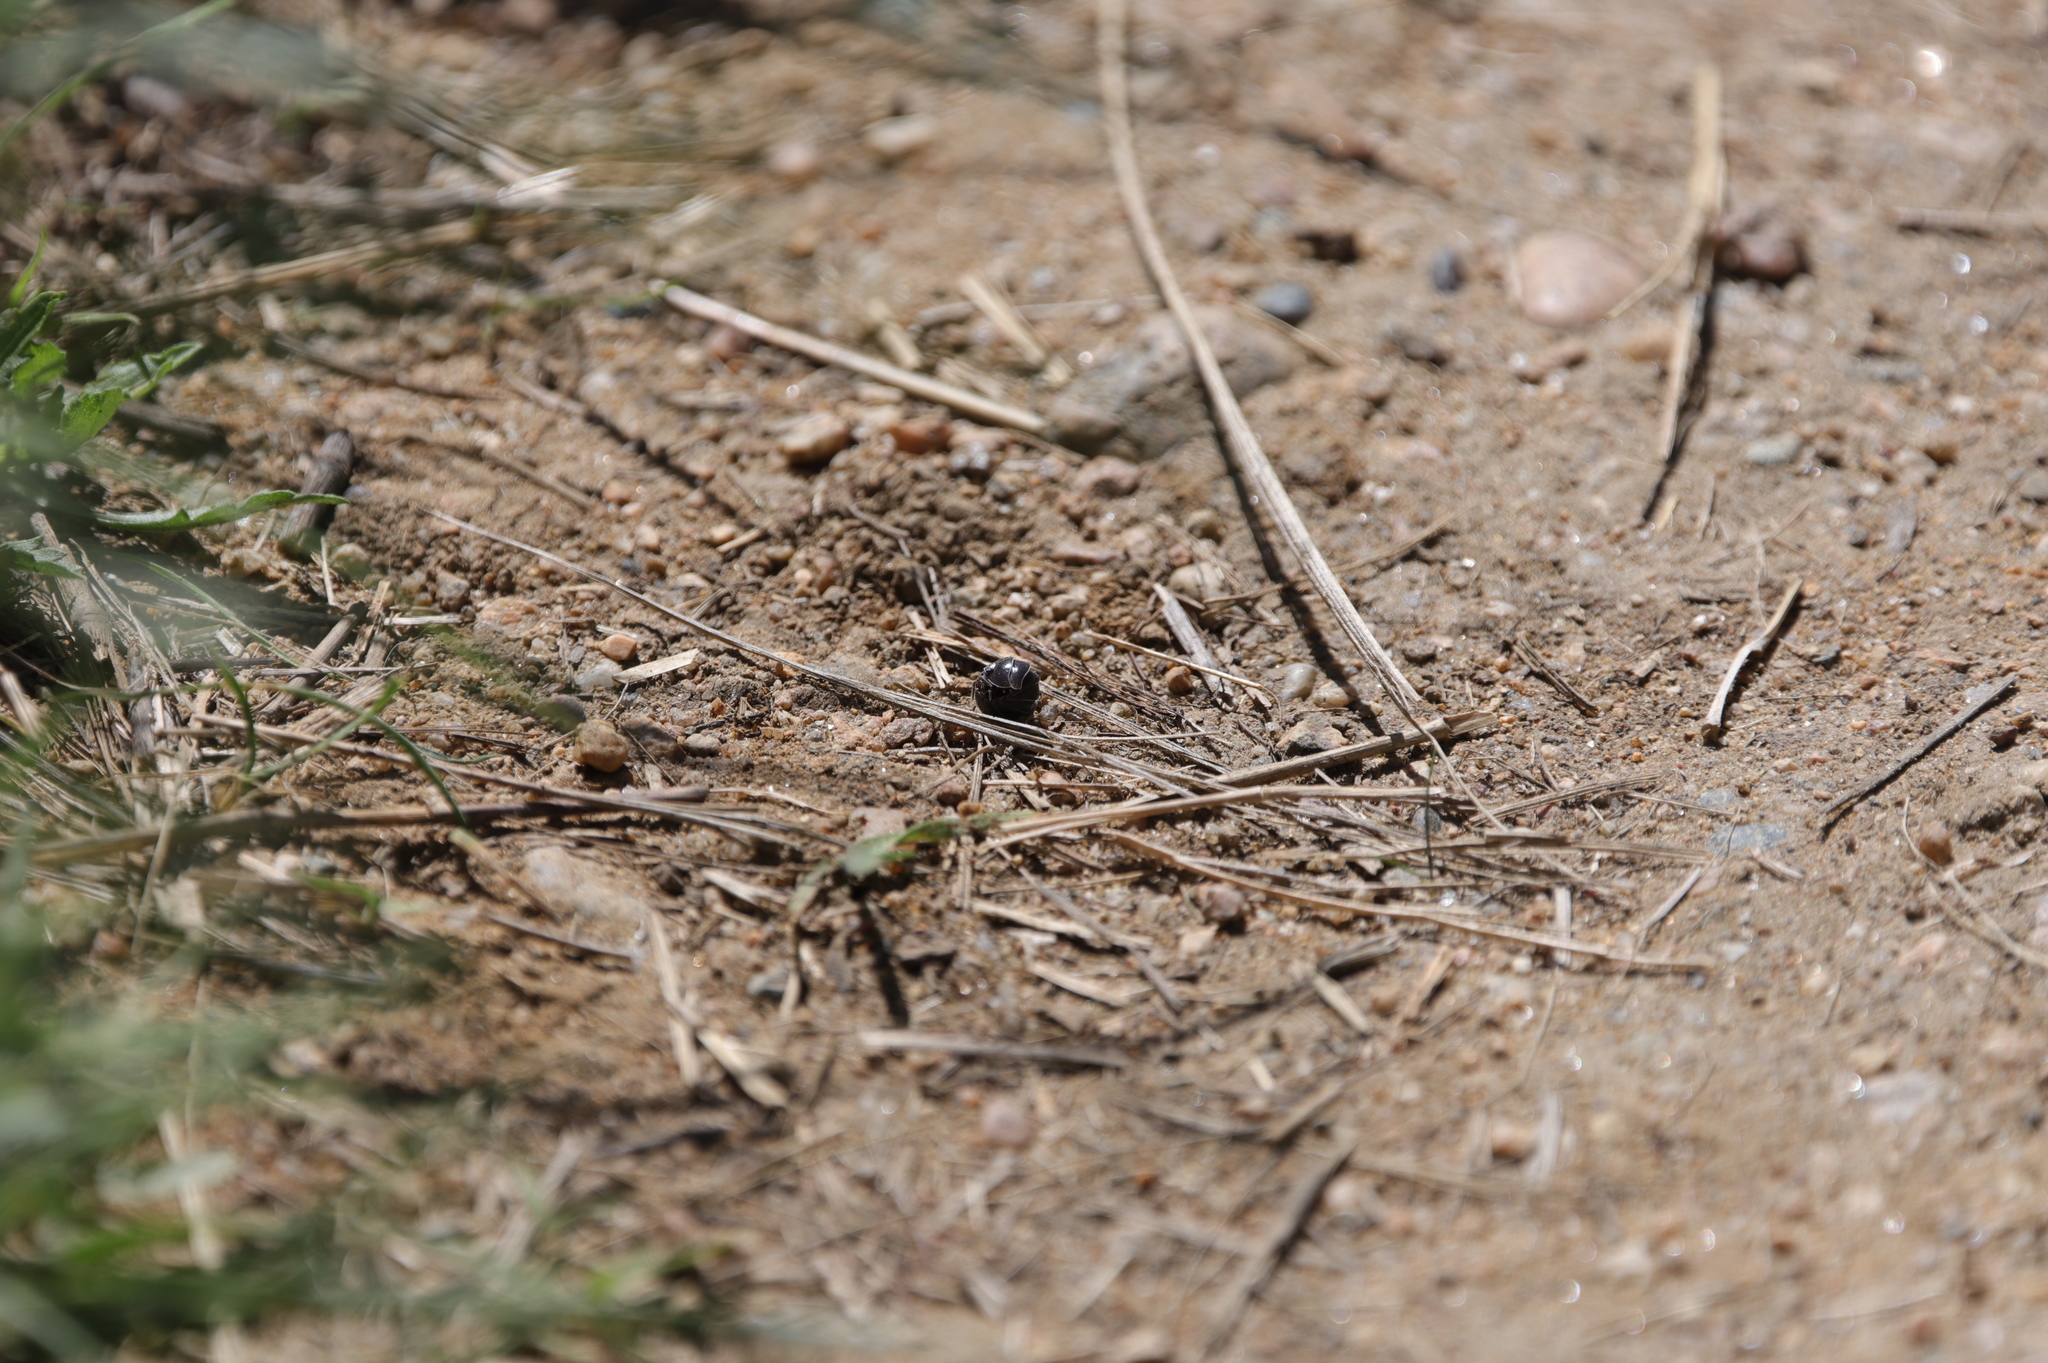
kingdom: Animalia
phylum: Arthropoda
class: Malacostraca
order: Isopoda
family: Armadillidiidae
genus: Armadillidium
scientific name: Armadillidium vulgare
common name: Common pill woodlouse
